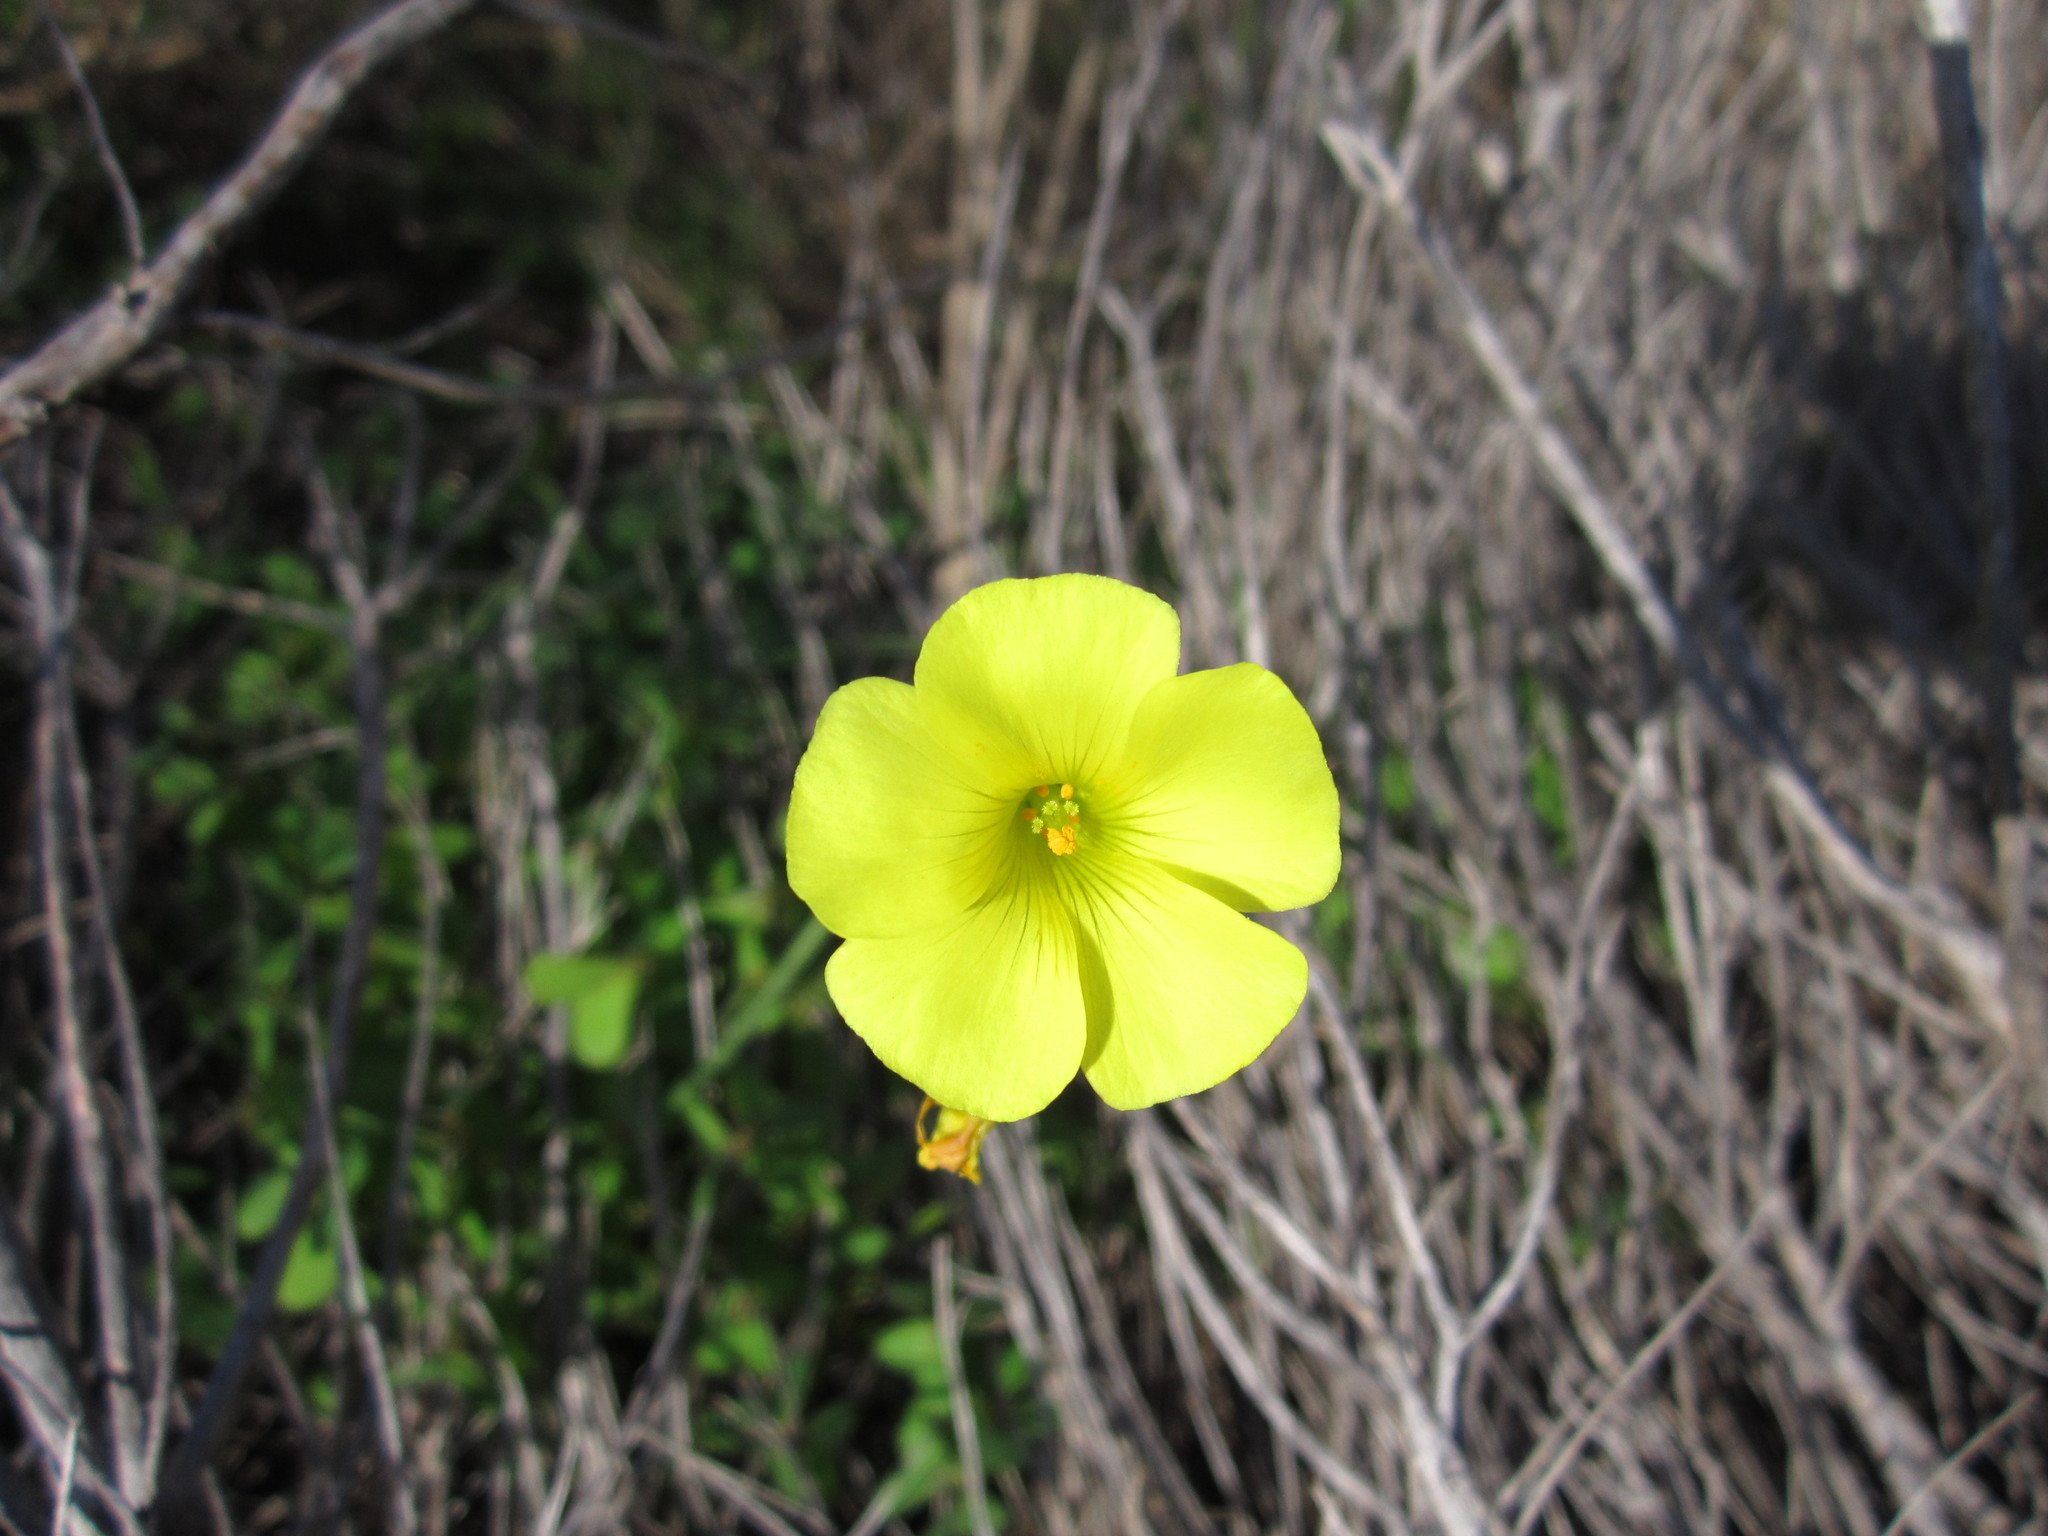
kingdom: Plantae
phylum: Tracheophyta
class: Magnoliopsida
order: Oxalidales
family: Oxalidaceae
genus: Oxalis
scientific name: Oxalis pes-caprae
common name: Bermuda-buttercup
